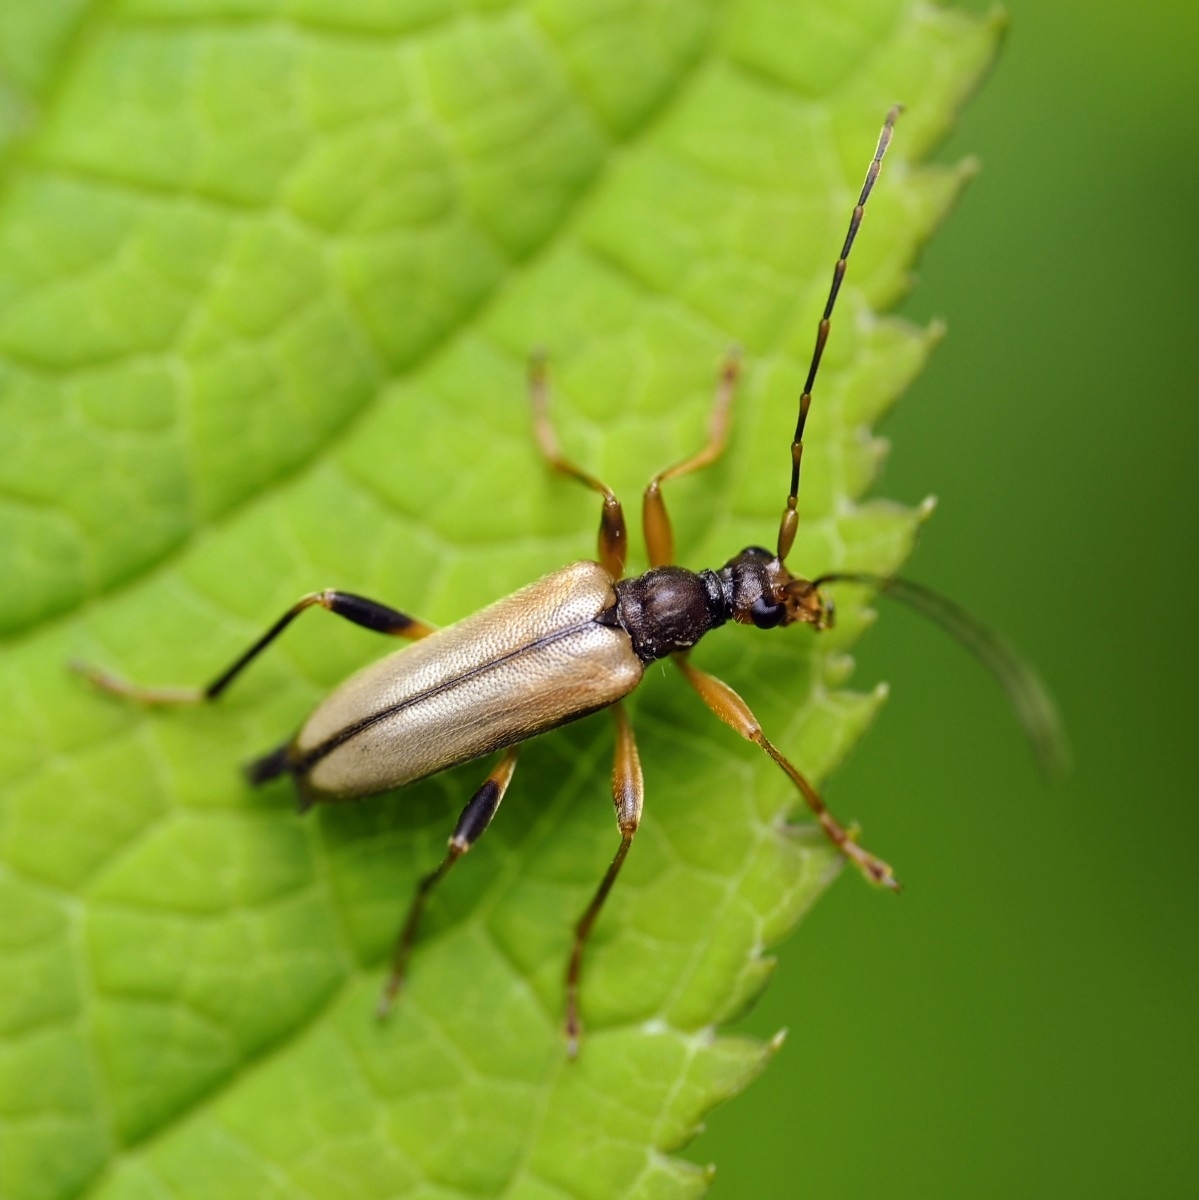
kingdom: Animalia
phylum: Arthropoda
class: Insecta
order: Coleoptera
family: Cerambycidae
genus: Pidonia
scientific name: Pidonia lurida
